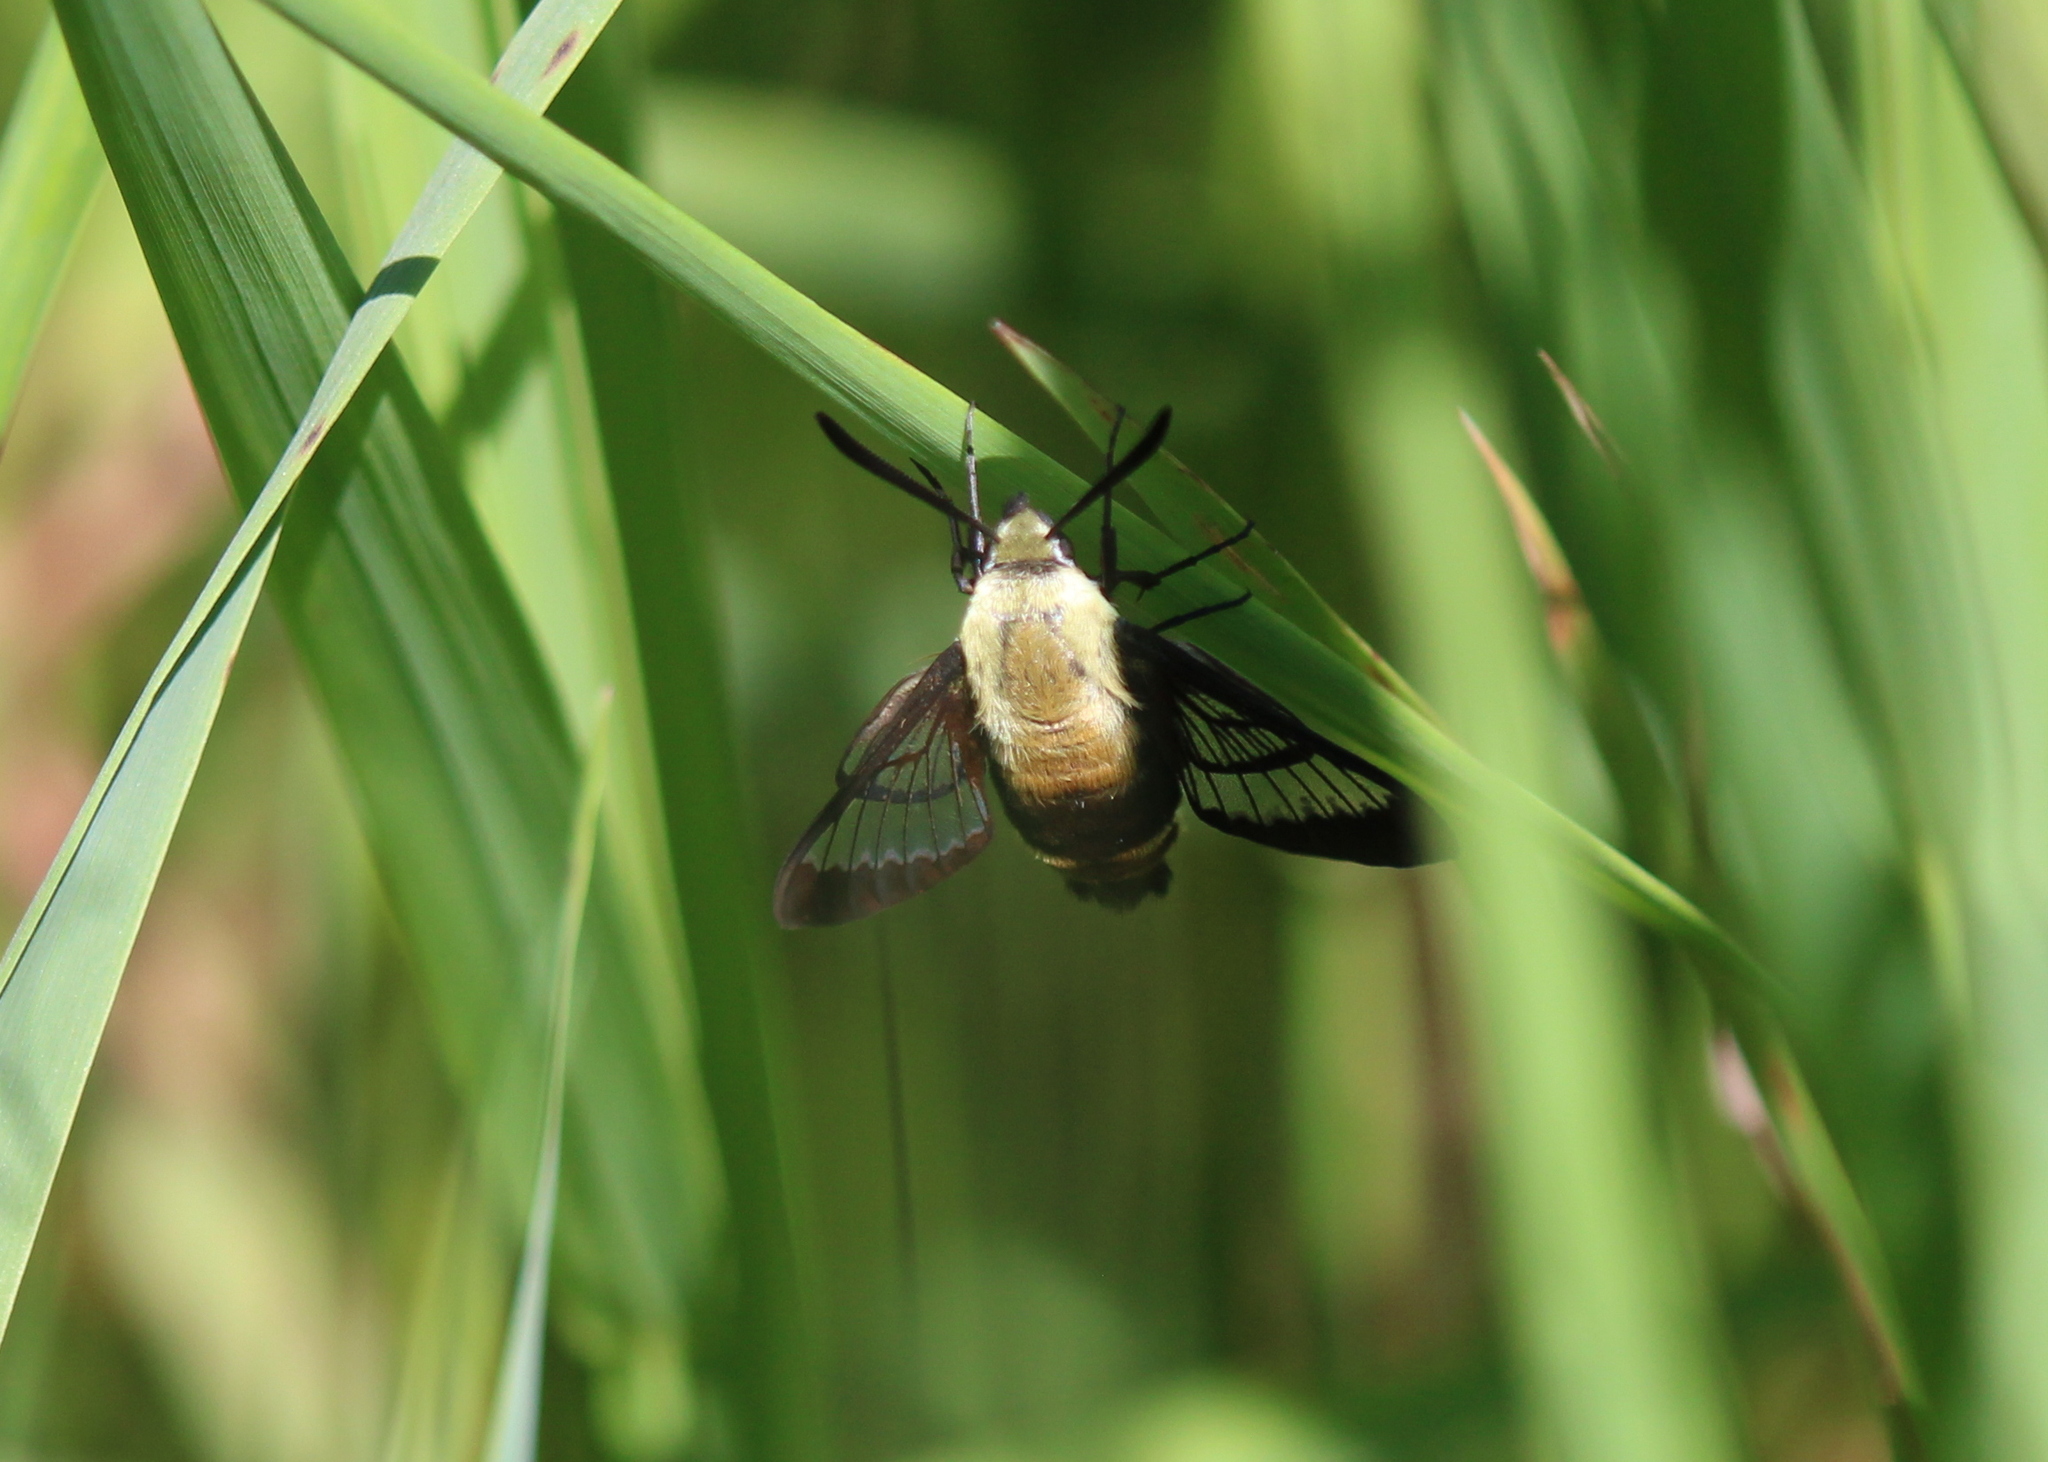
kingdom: Animalia
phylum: Arthropoda
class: Insecta
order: Lepidoptera
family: Sphingidae
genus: Hemaris
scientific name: Hemaris diffinis
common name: Bumblebee moth
